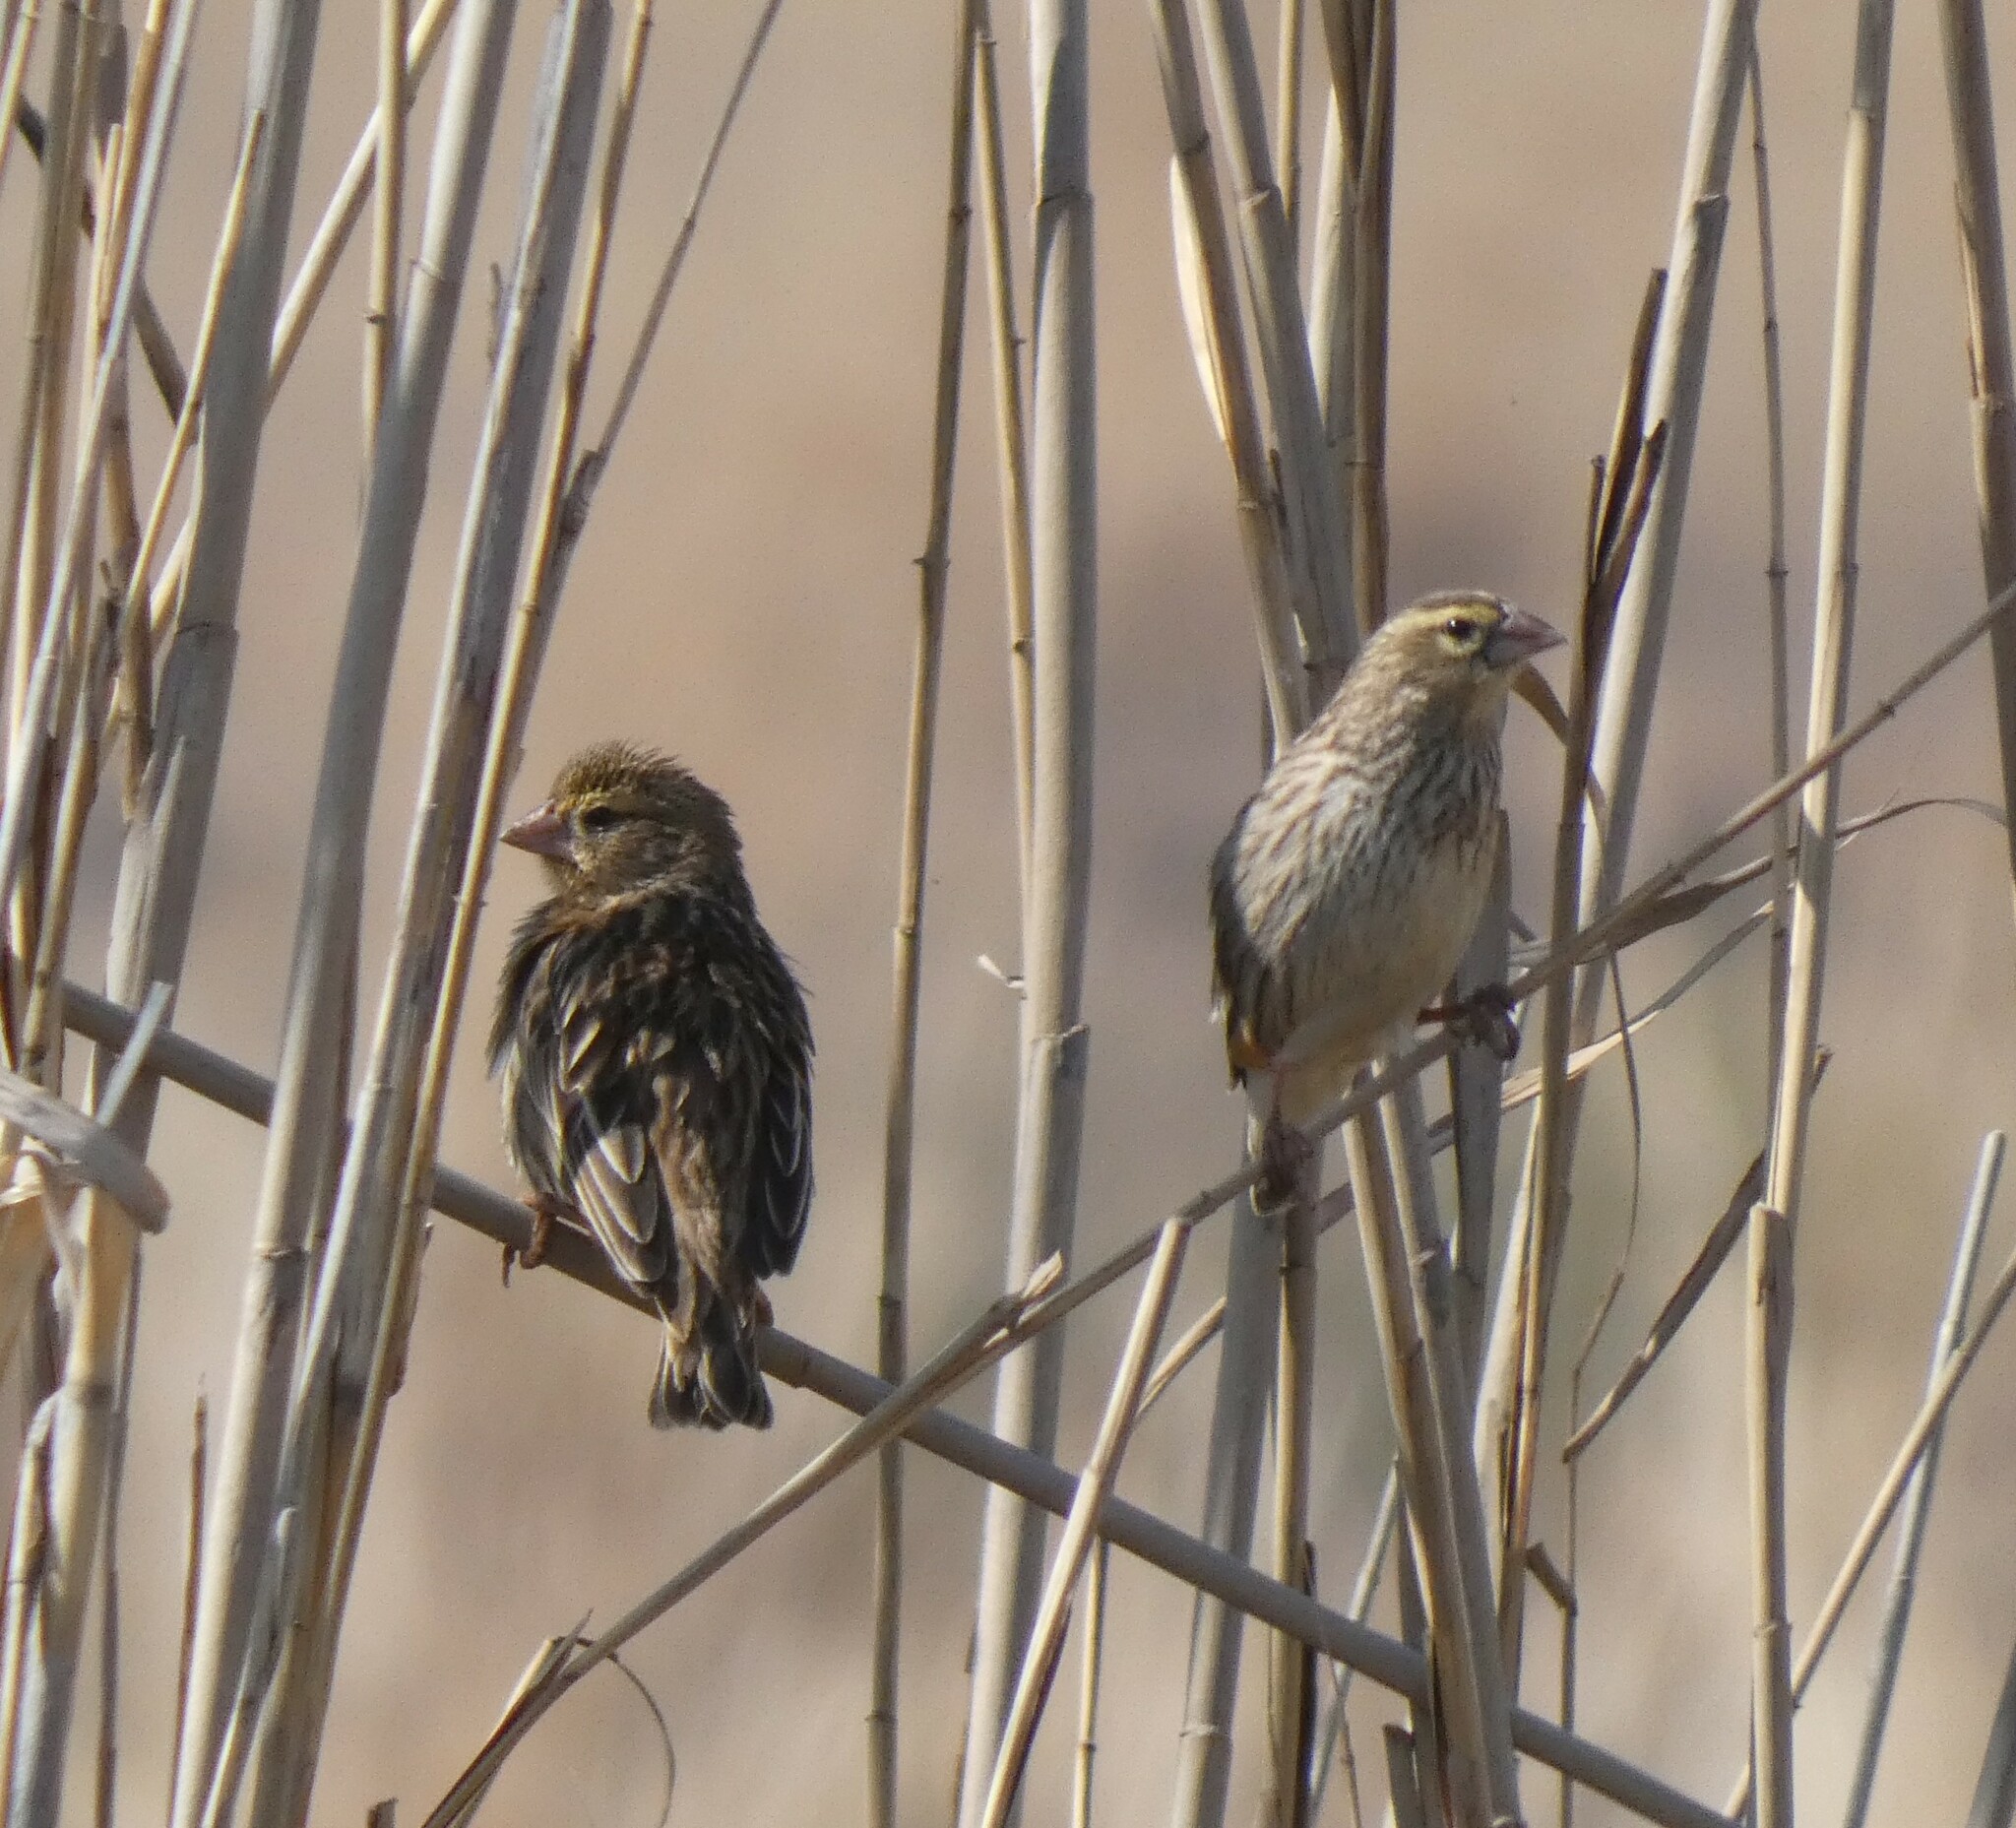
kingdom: Animalia
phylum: Chordata
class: Aves
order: Passeriformes
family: Ploceidae
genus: Euplectes
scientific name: Euplectes orix
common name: Southern red bishop
